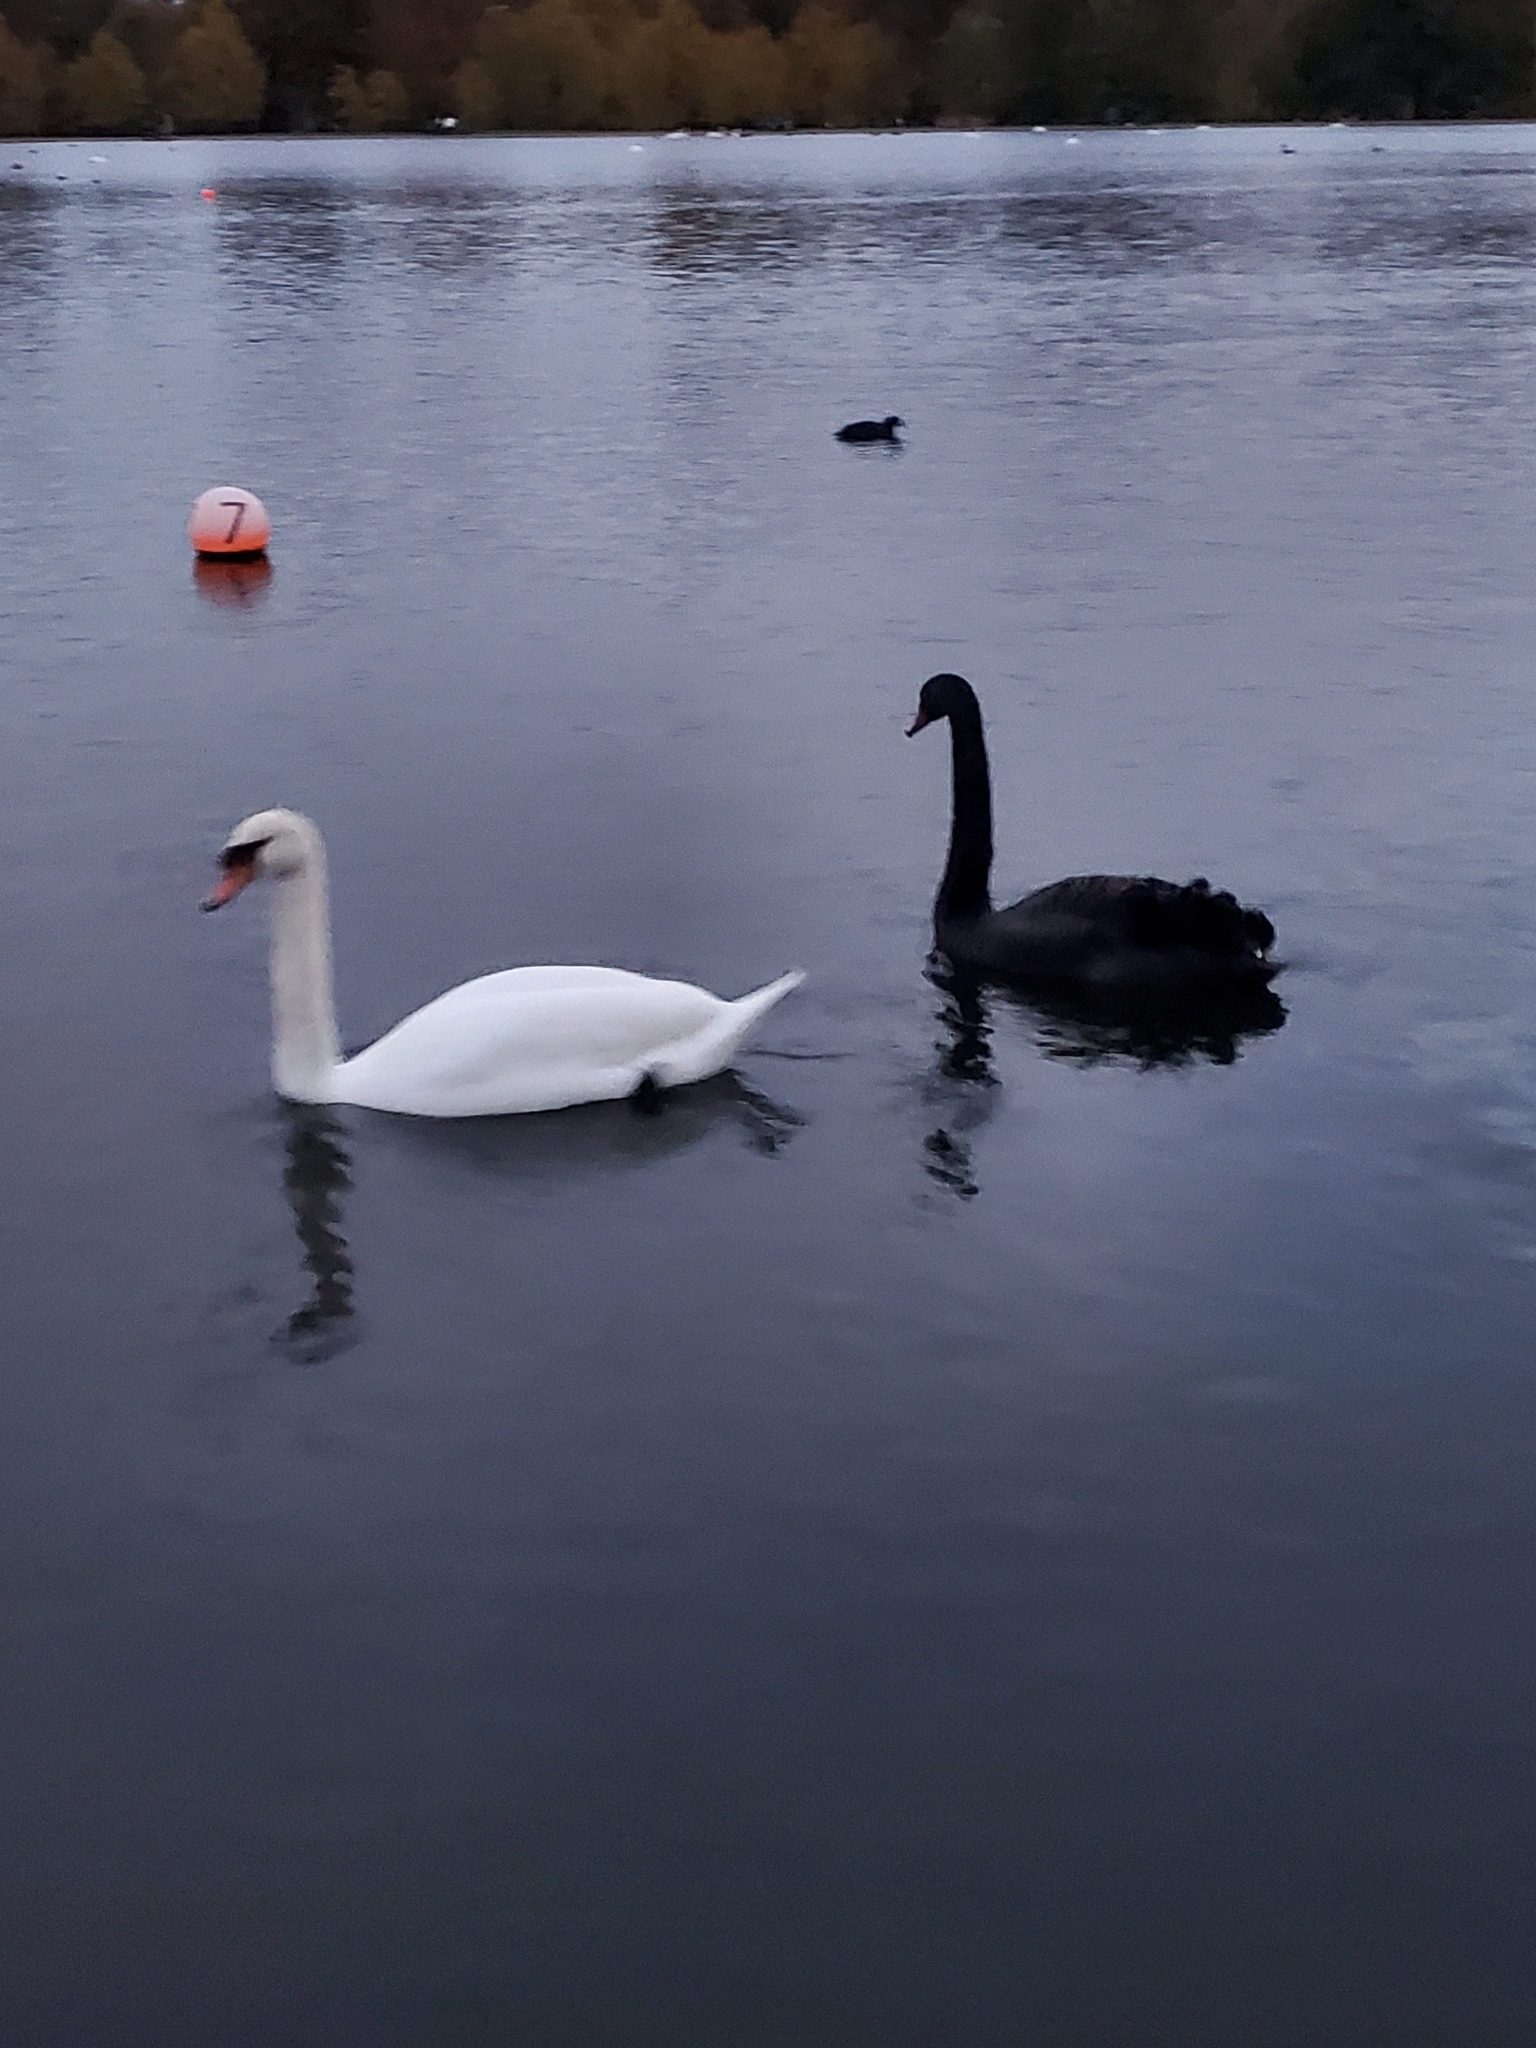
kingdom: Animalia
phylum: Chordata
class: Aves
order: Anseriformes
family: Anatidae
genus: Cygnus
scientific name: Cygnus olor
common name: Mute swan
